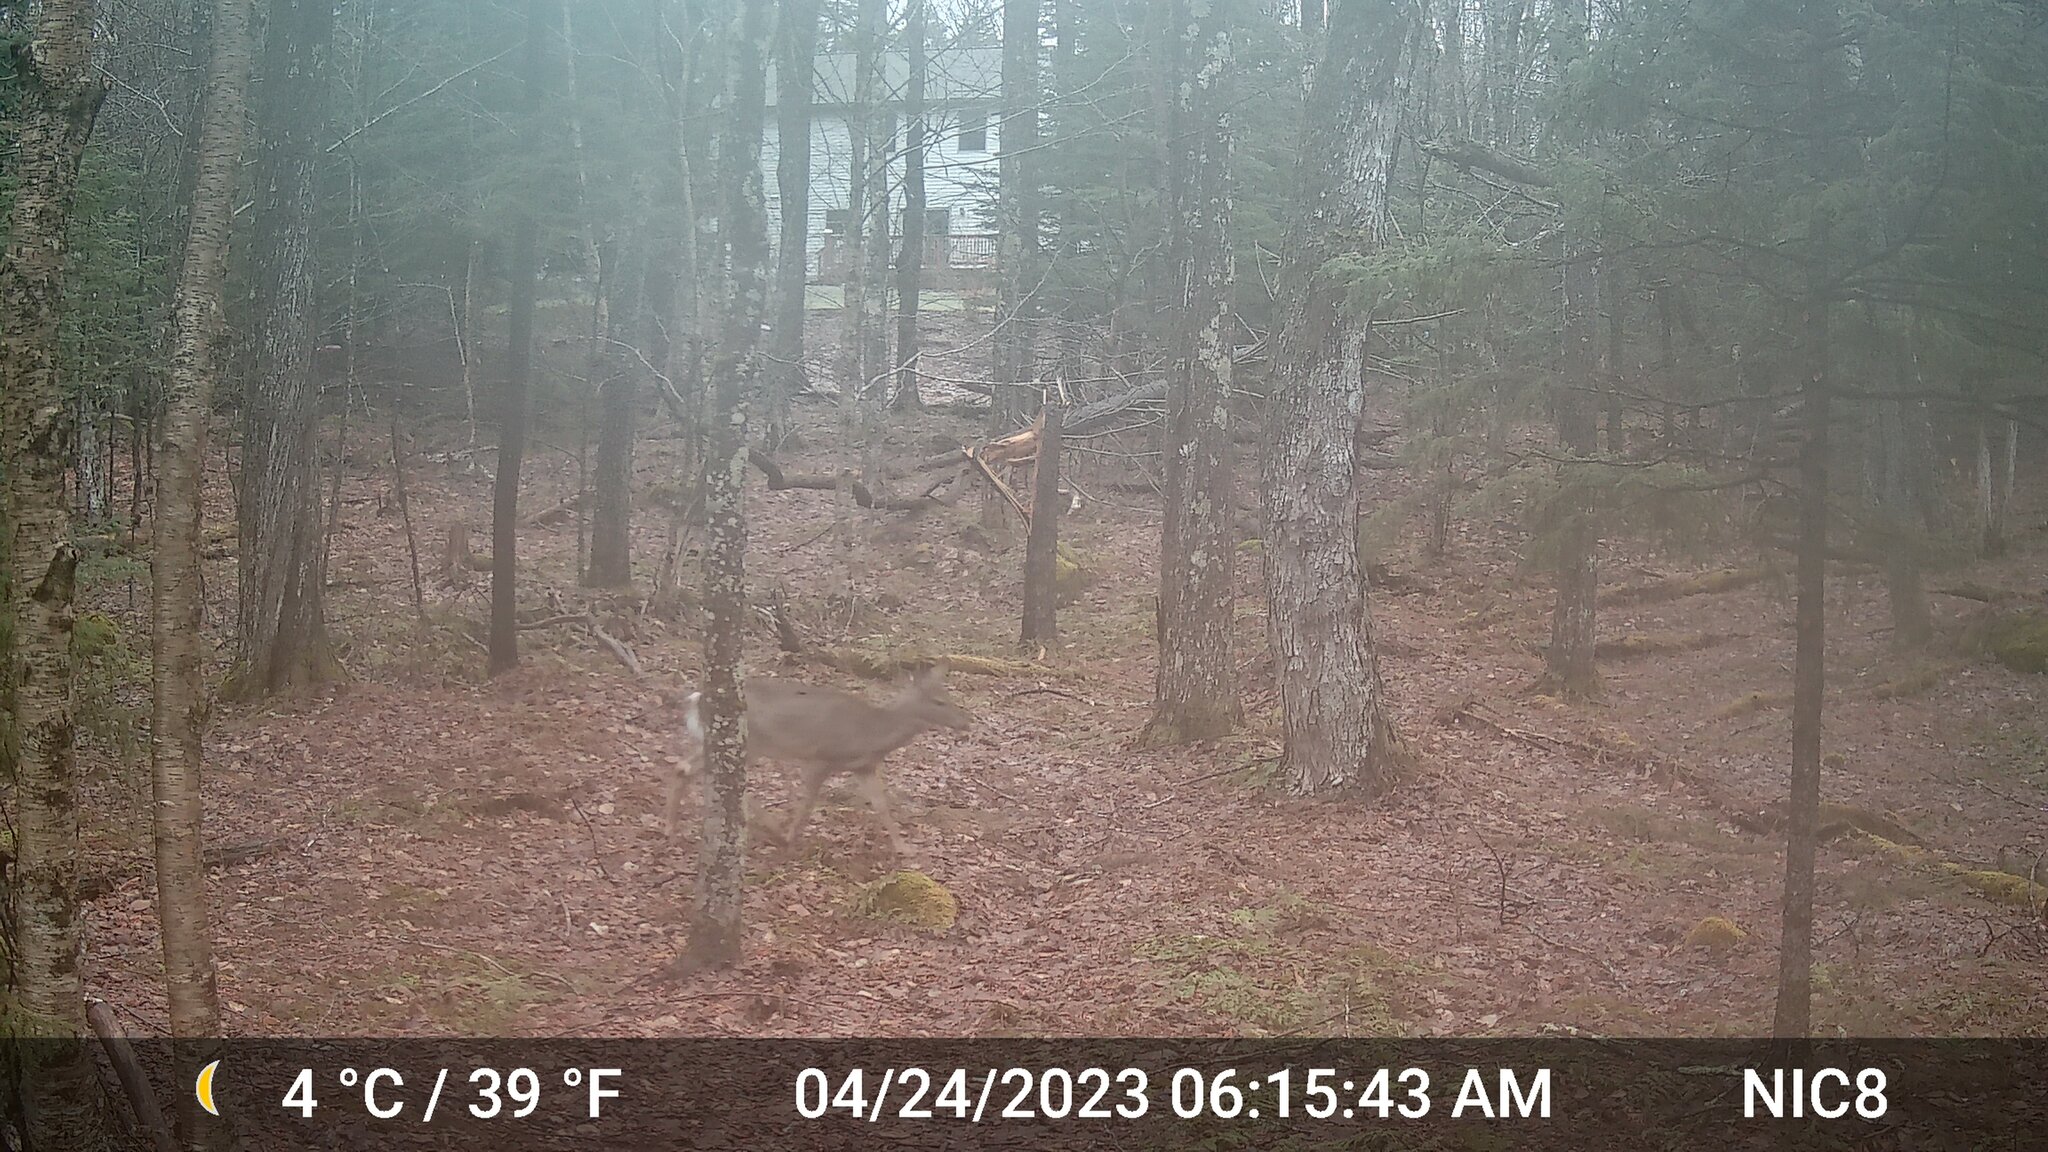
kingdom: Animalia
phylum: Chordata
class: Mammalia
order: Artiodactyla
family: Cervidae
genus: Odocoileus
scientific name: Odocoileus virginianus
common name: White-tailed deer
